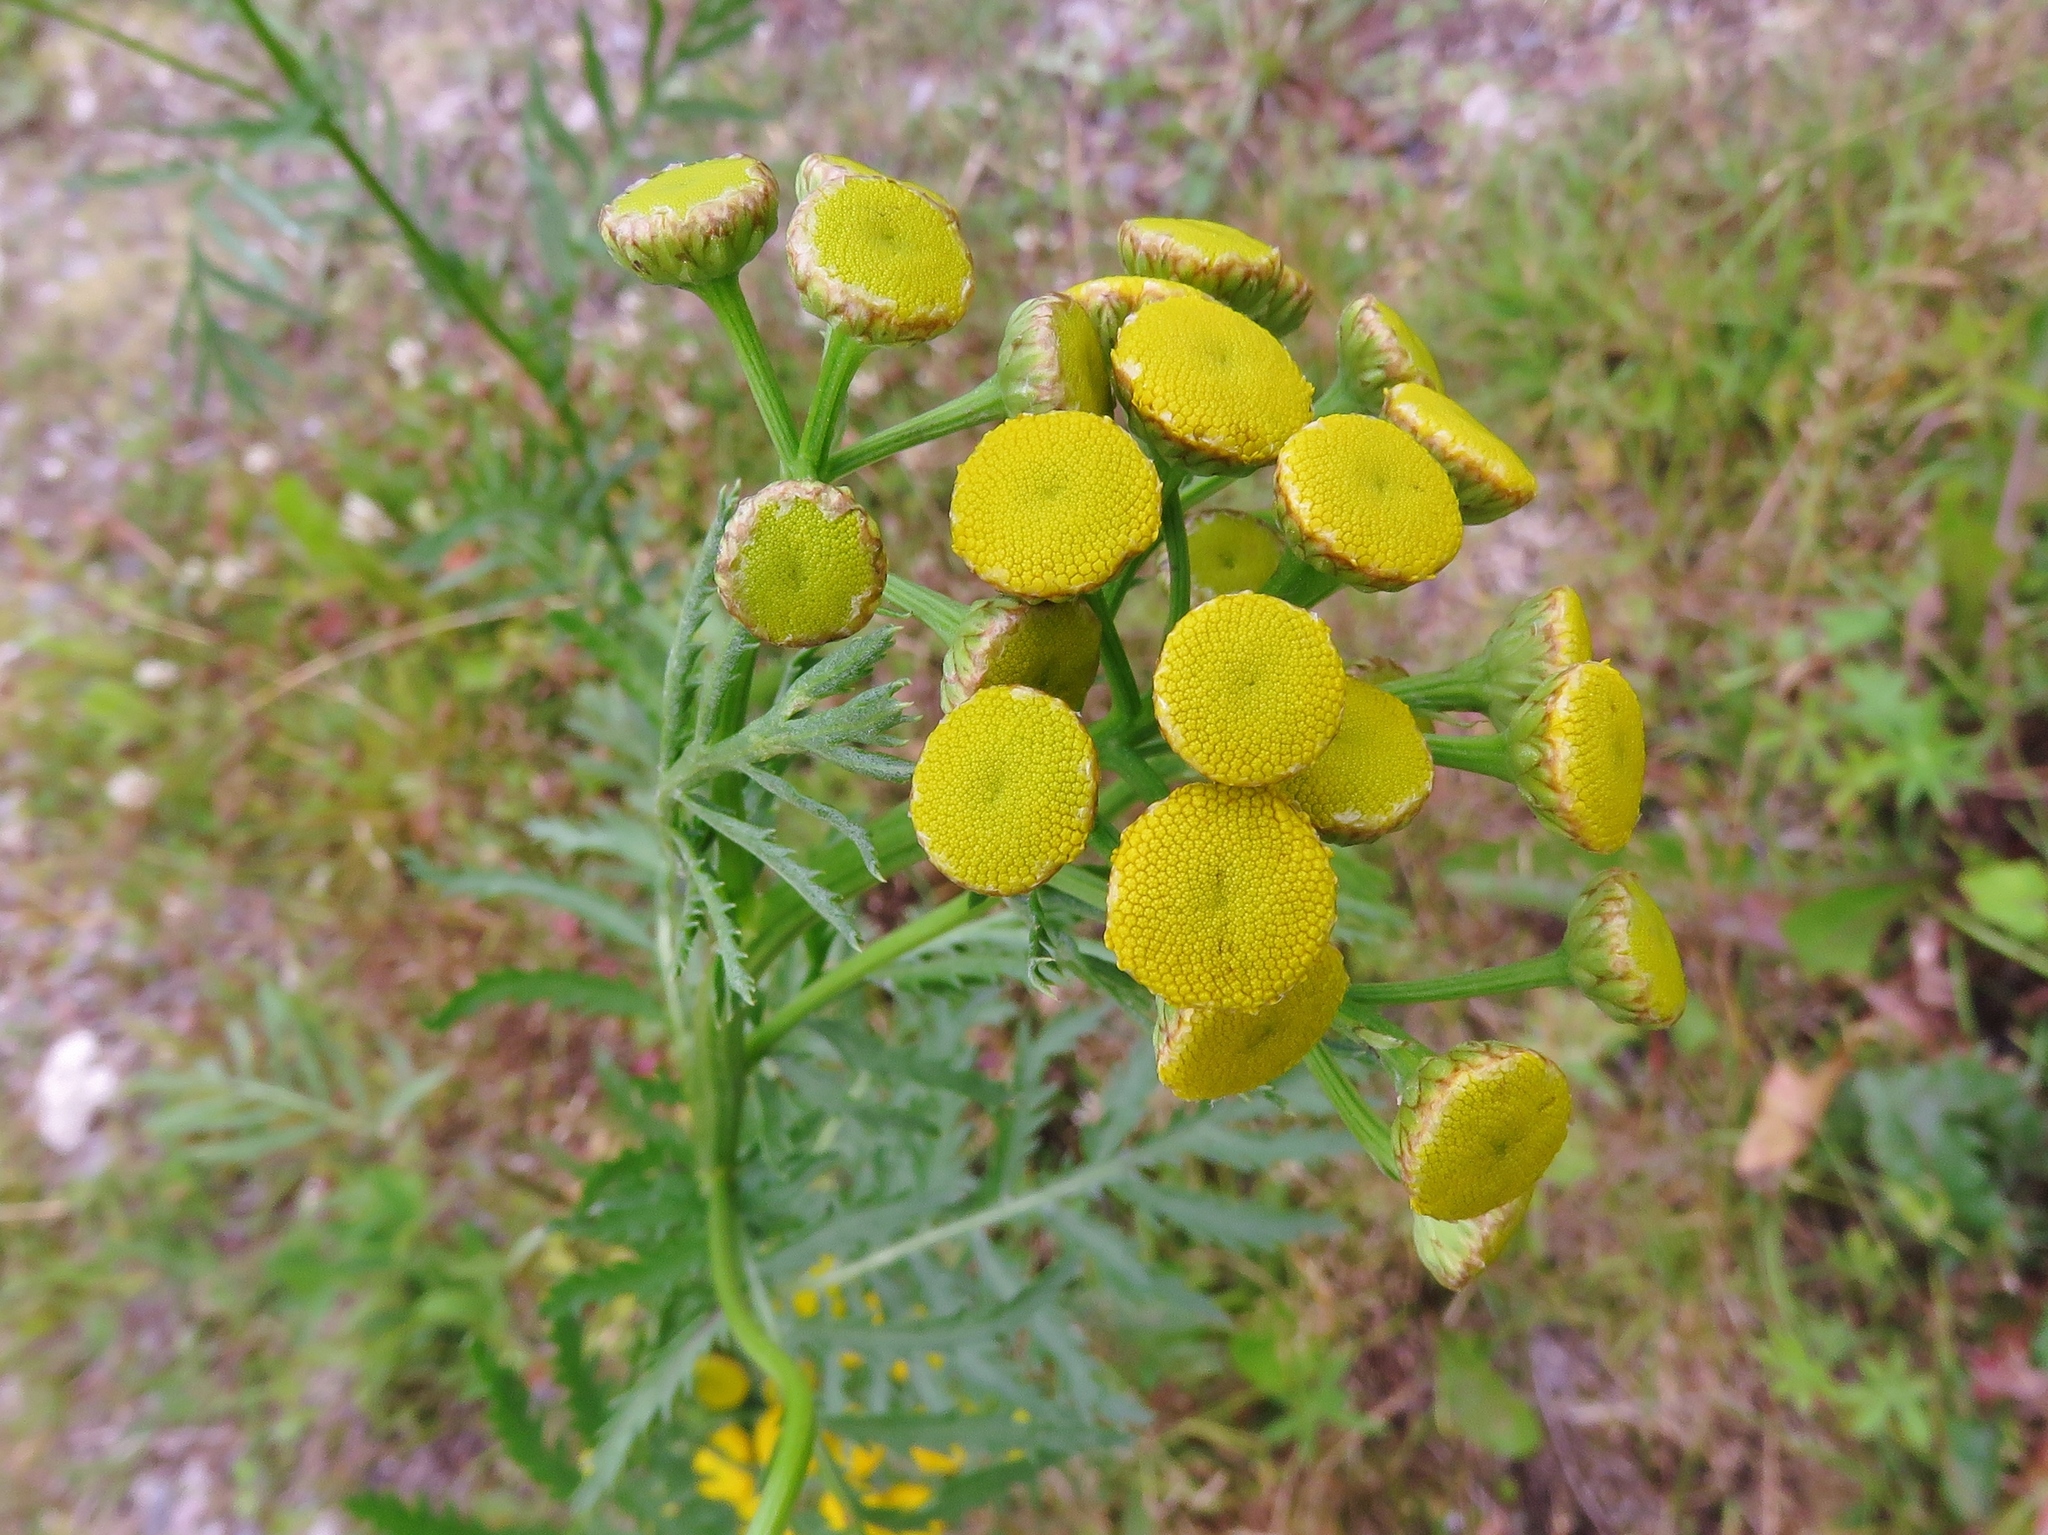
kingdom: Plantae
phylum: Tracheophyta
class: Magnoliopsida
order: Asterales
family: Asteraceae
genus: Tanacetum
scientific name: Tanacetum vulgare
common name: Common tansy
